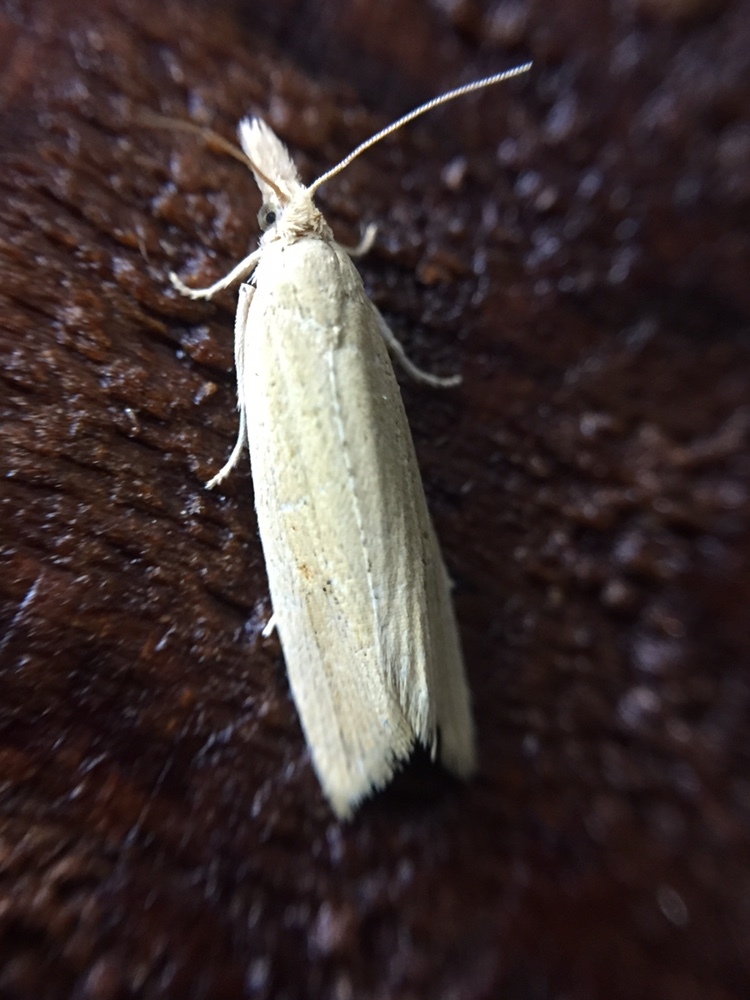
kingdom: Animalia
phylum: Arthropoda
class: Insecta
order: Lepidoptera
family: Tortricidae
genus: Bactra
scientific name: Bactra noteraula
